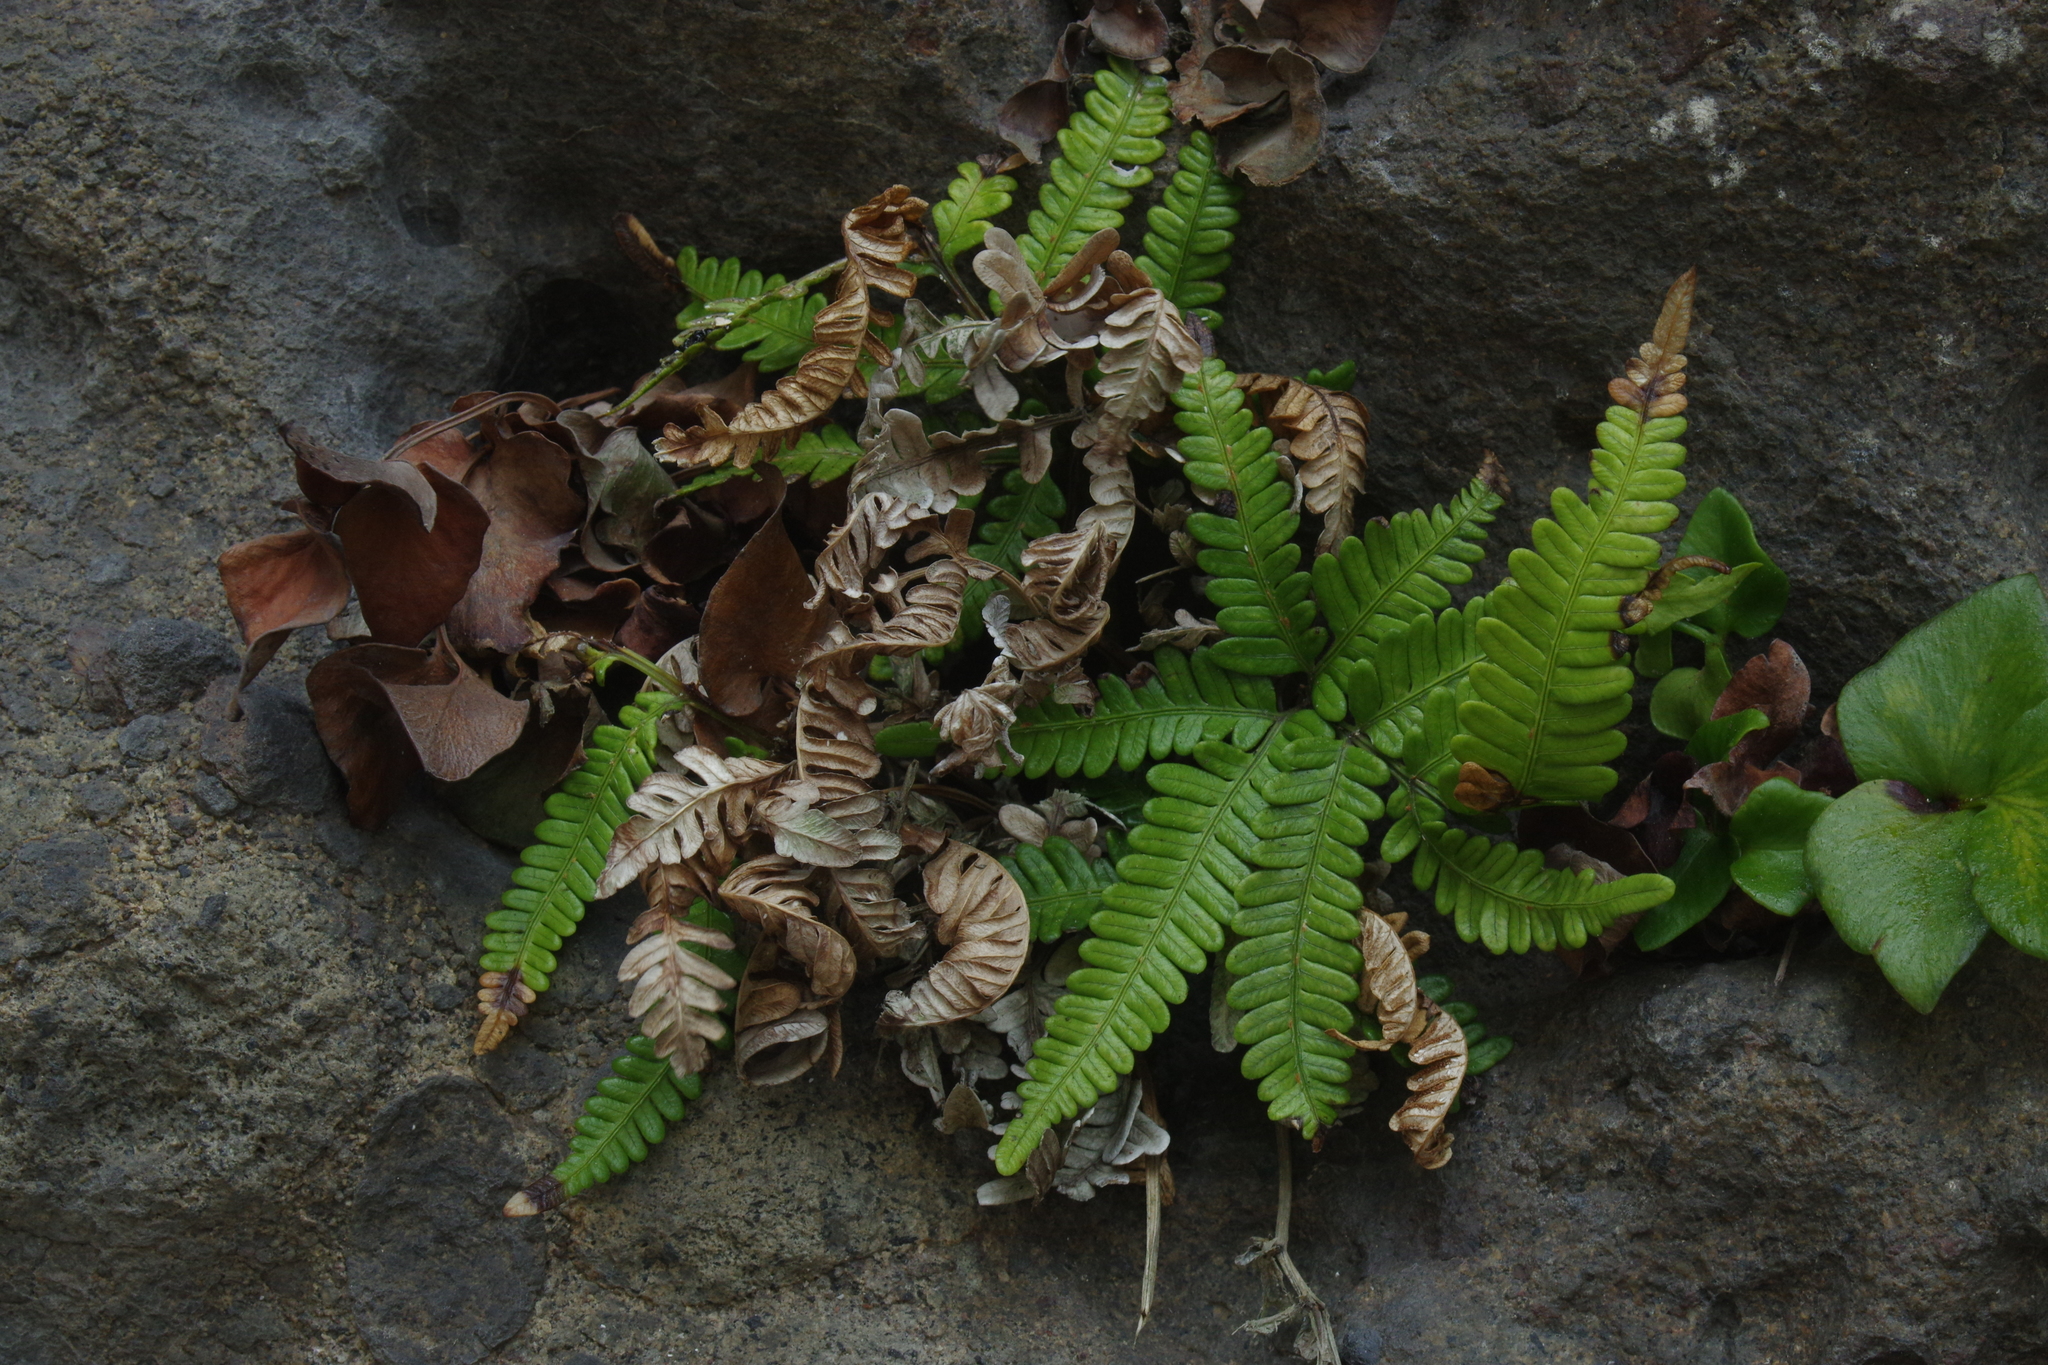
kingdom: Plantae
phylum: Tracheophyta
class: Polypodiopsida
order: Polypodiales
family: Pteridaceae
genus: Pteris
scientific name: Pteris minor
